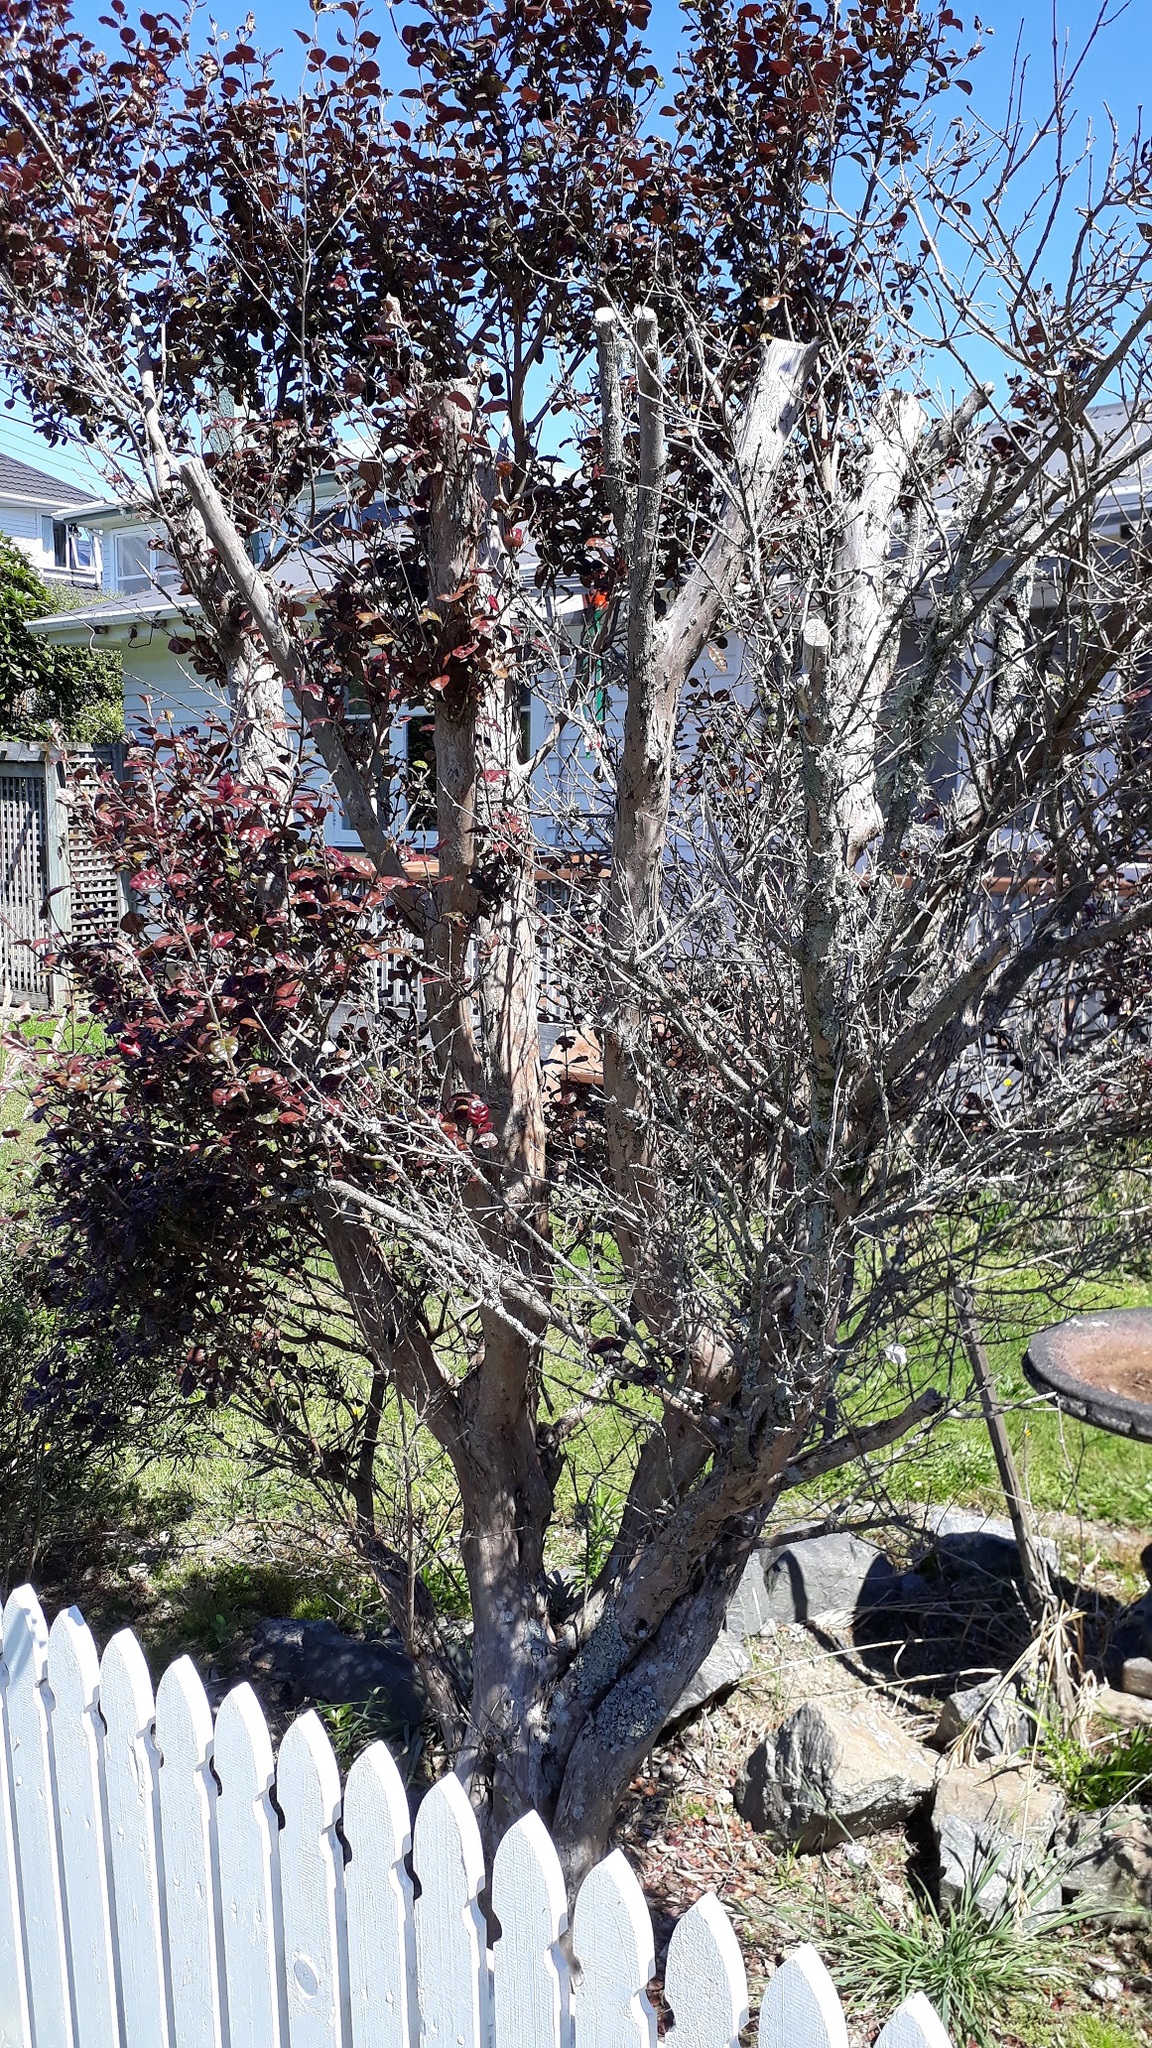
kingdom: Fungi
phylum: Basidiomycota
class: Pucciniomycetes
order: Pucciniales
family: Sphaerophragmiaceae
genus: Austropuccinia
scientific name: Austropuccinia psidii
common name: Myrtle rust
